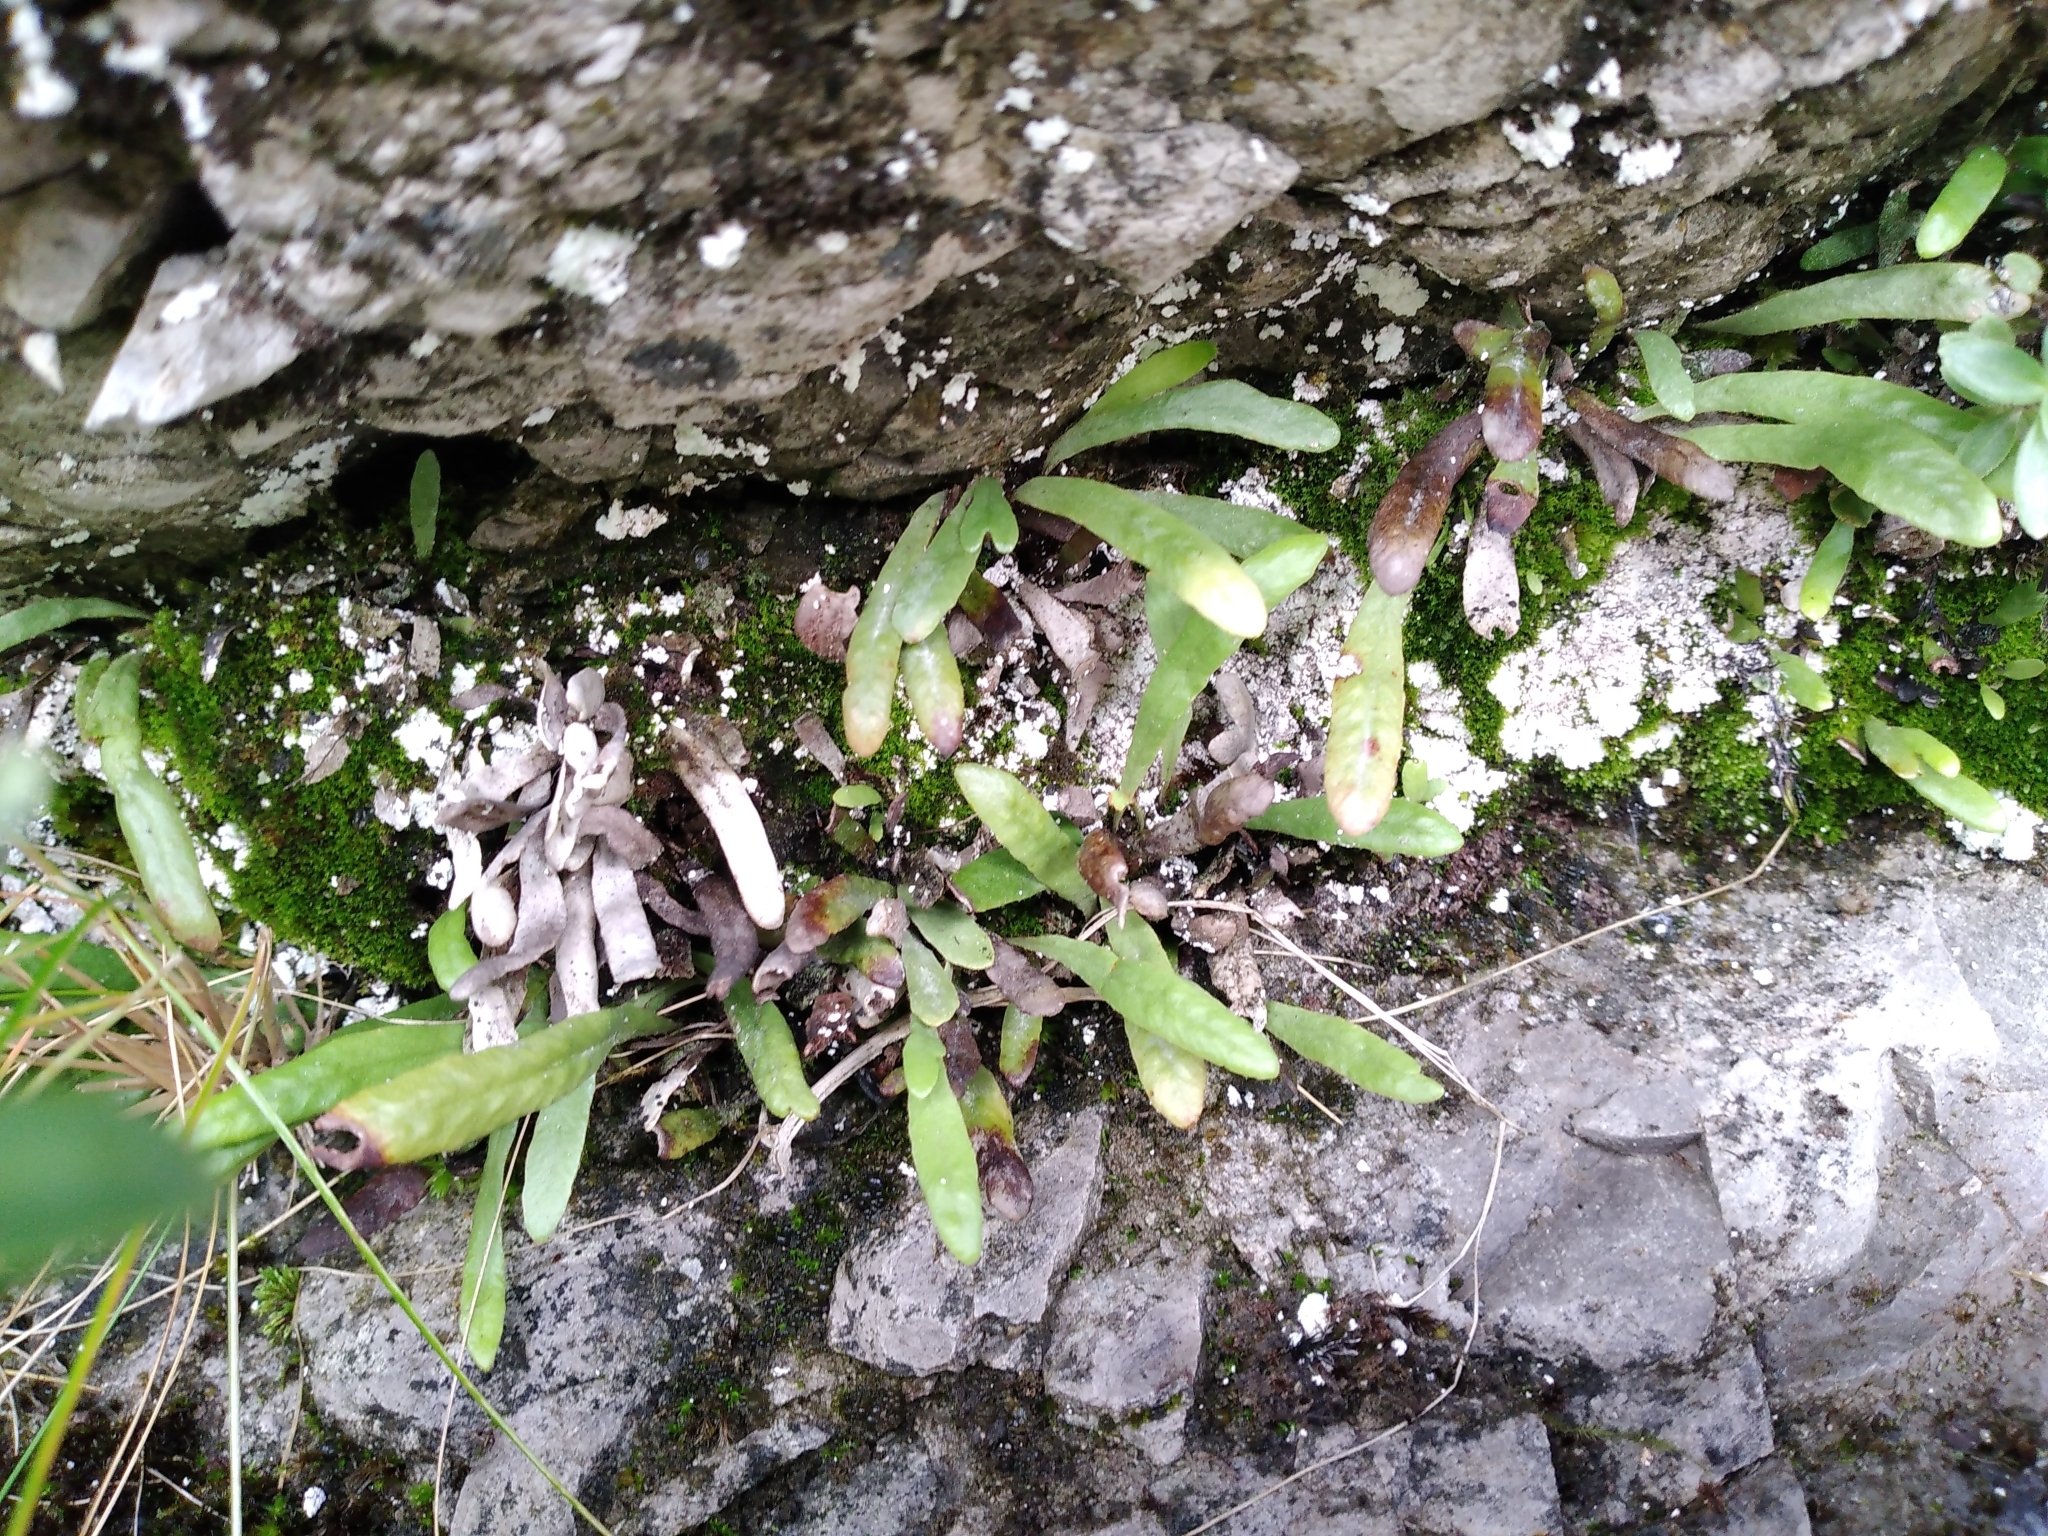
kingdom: Plantae
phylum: Tracheophyta
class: Polypodiopsida
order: Polypodiales
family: Polypodiaceae
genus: Notogrammitis
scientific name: Notogrammitis patagonica
